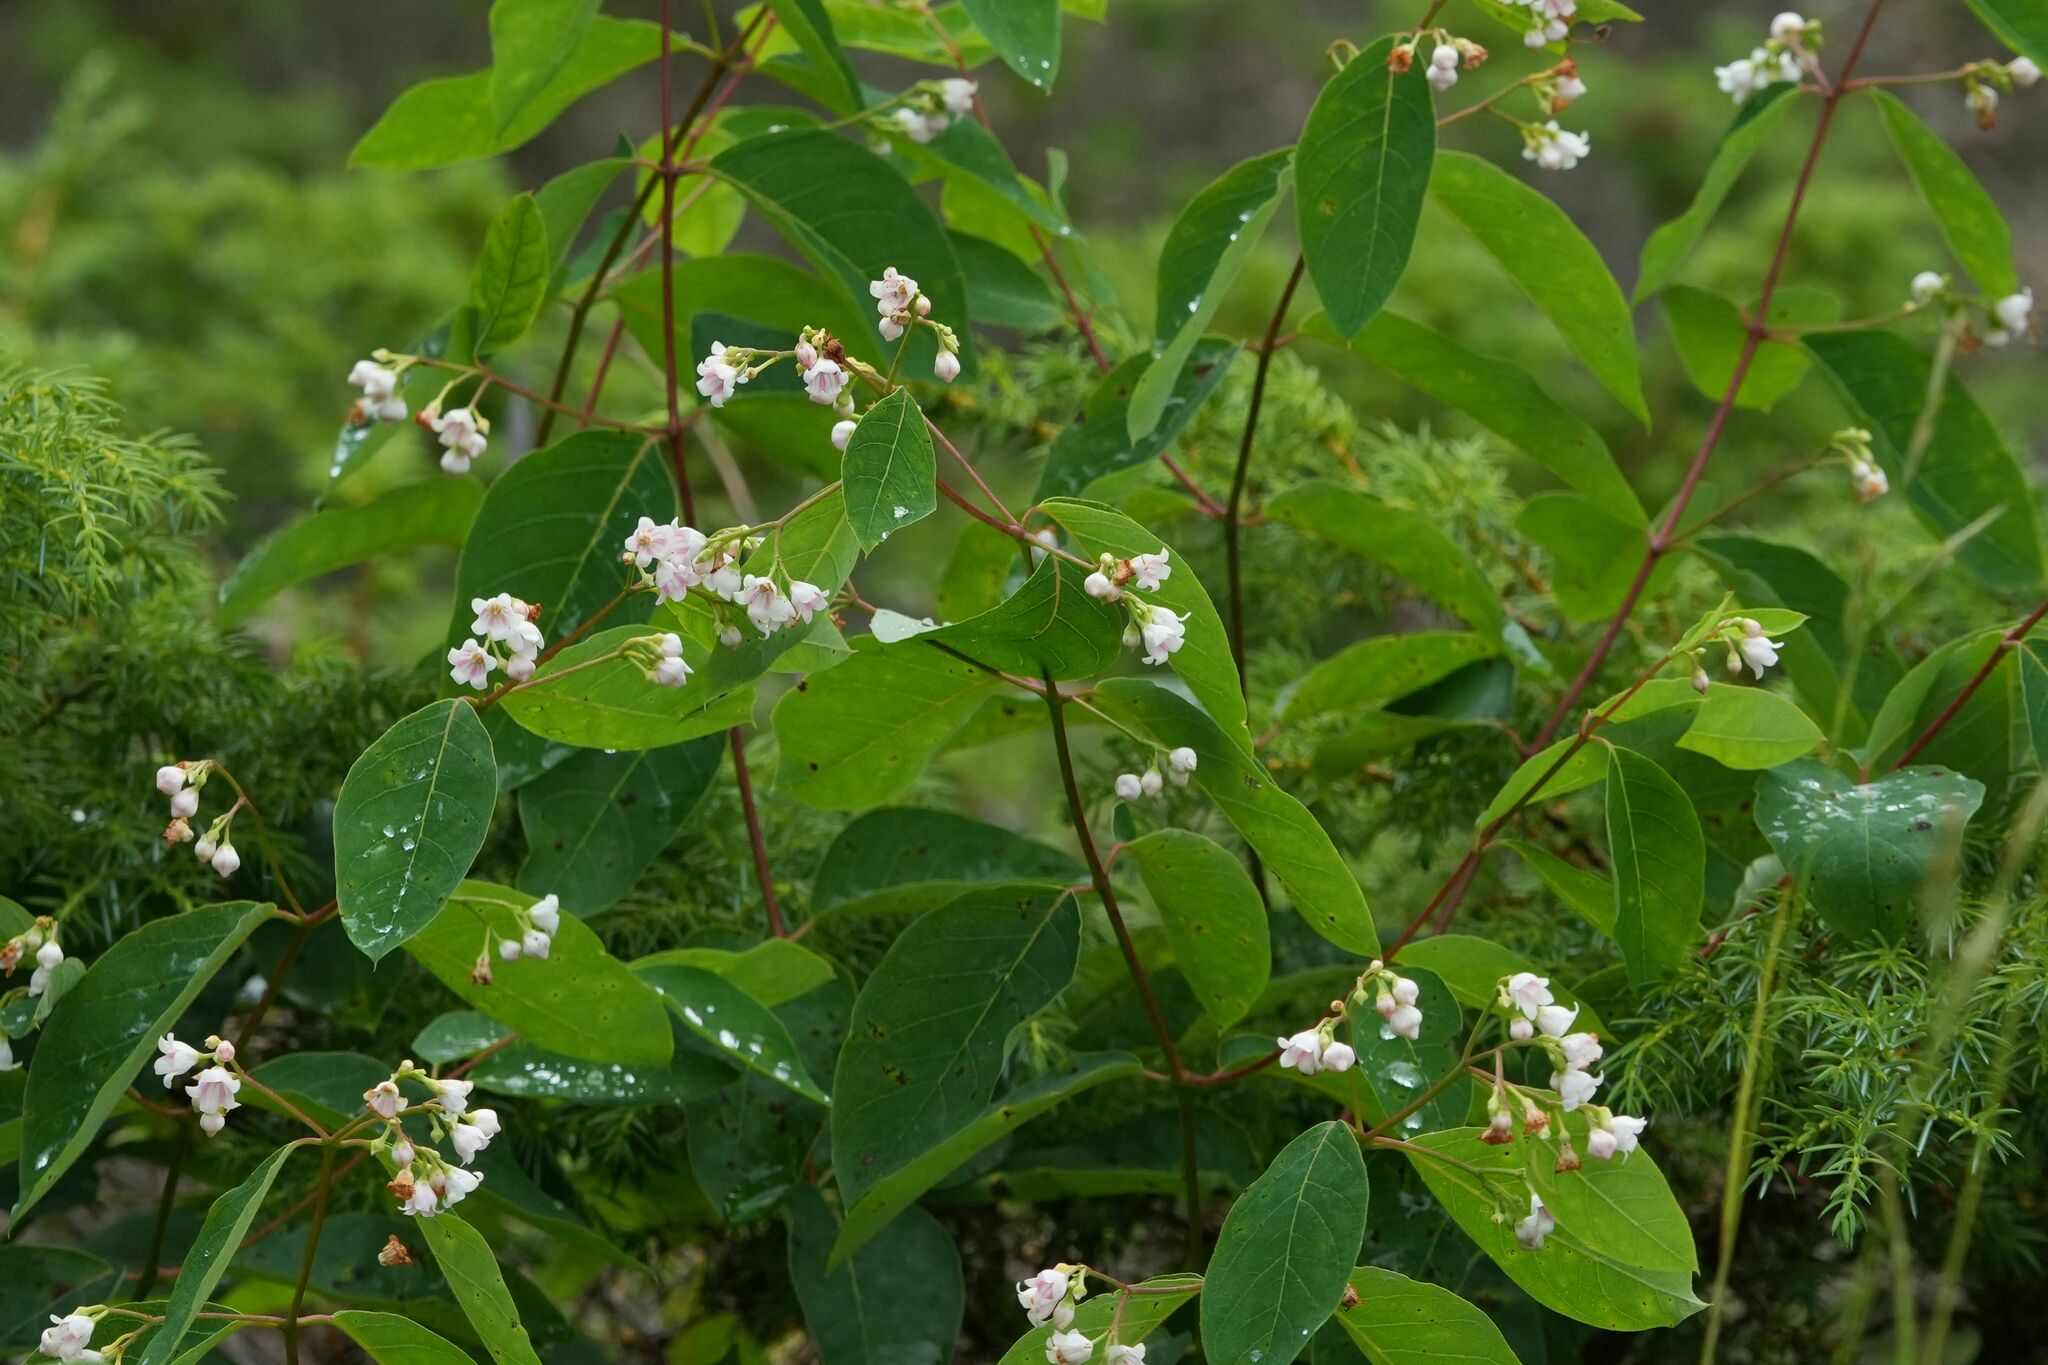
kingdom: Plantae
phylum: Tracheophyta
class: Magnoliopsida
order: Gentianales
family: Apocynaceae
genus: Apocynum
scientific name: Apocynum androsaemifolium
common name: Spreading dogbane
